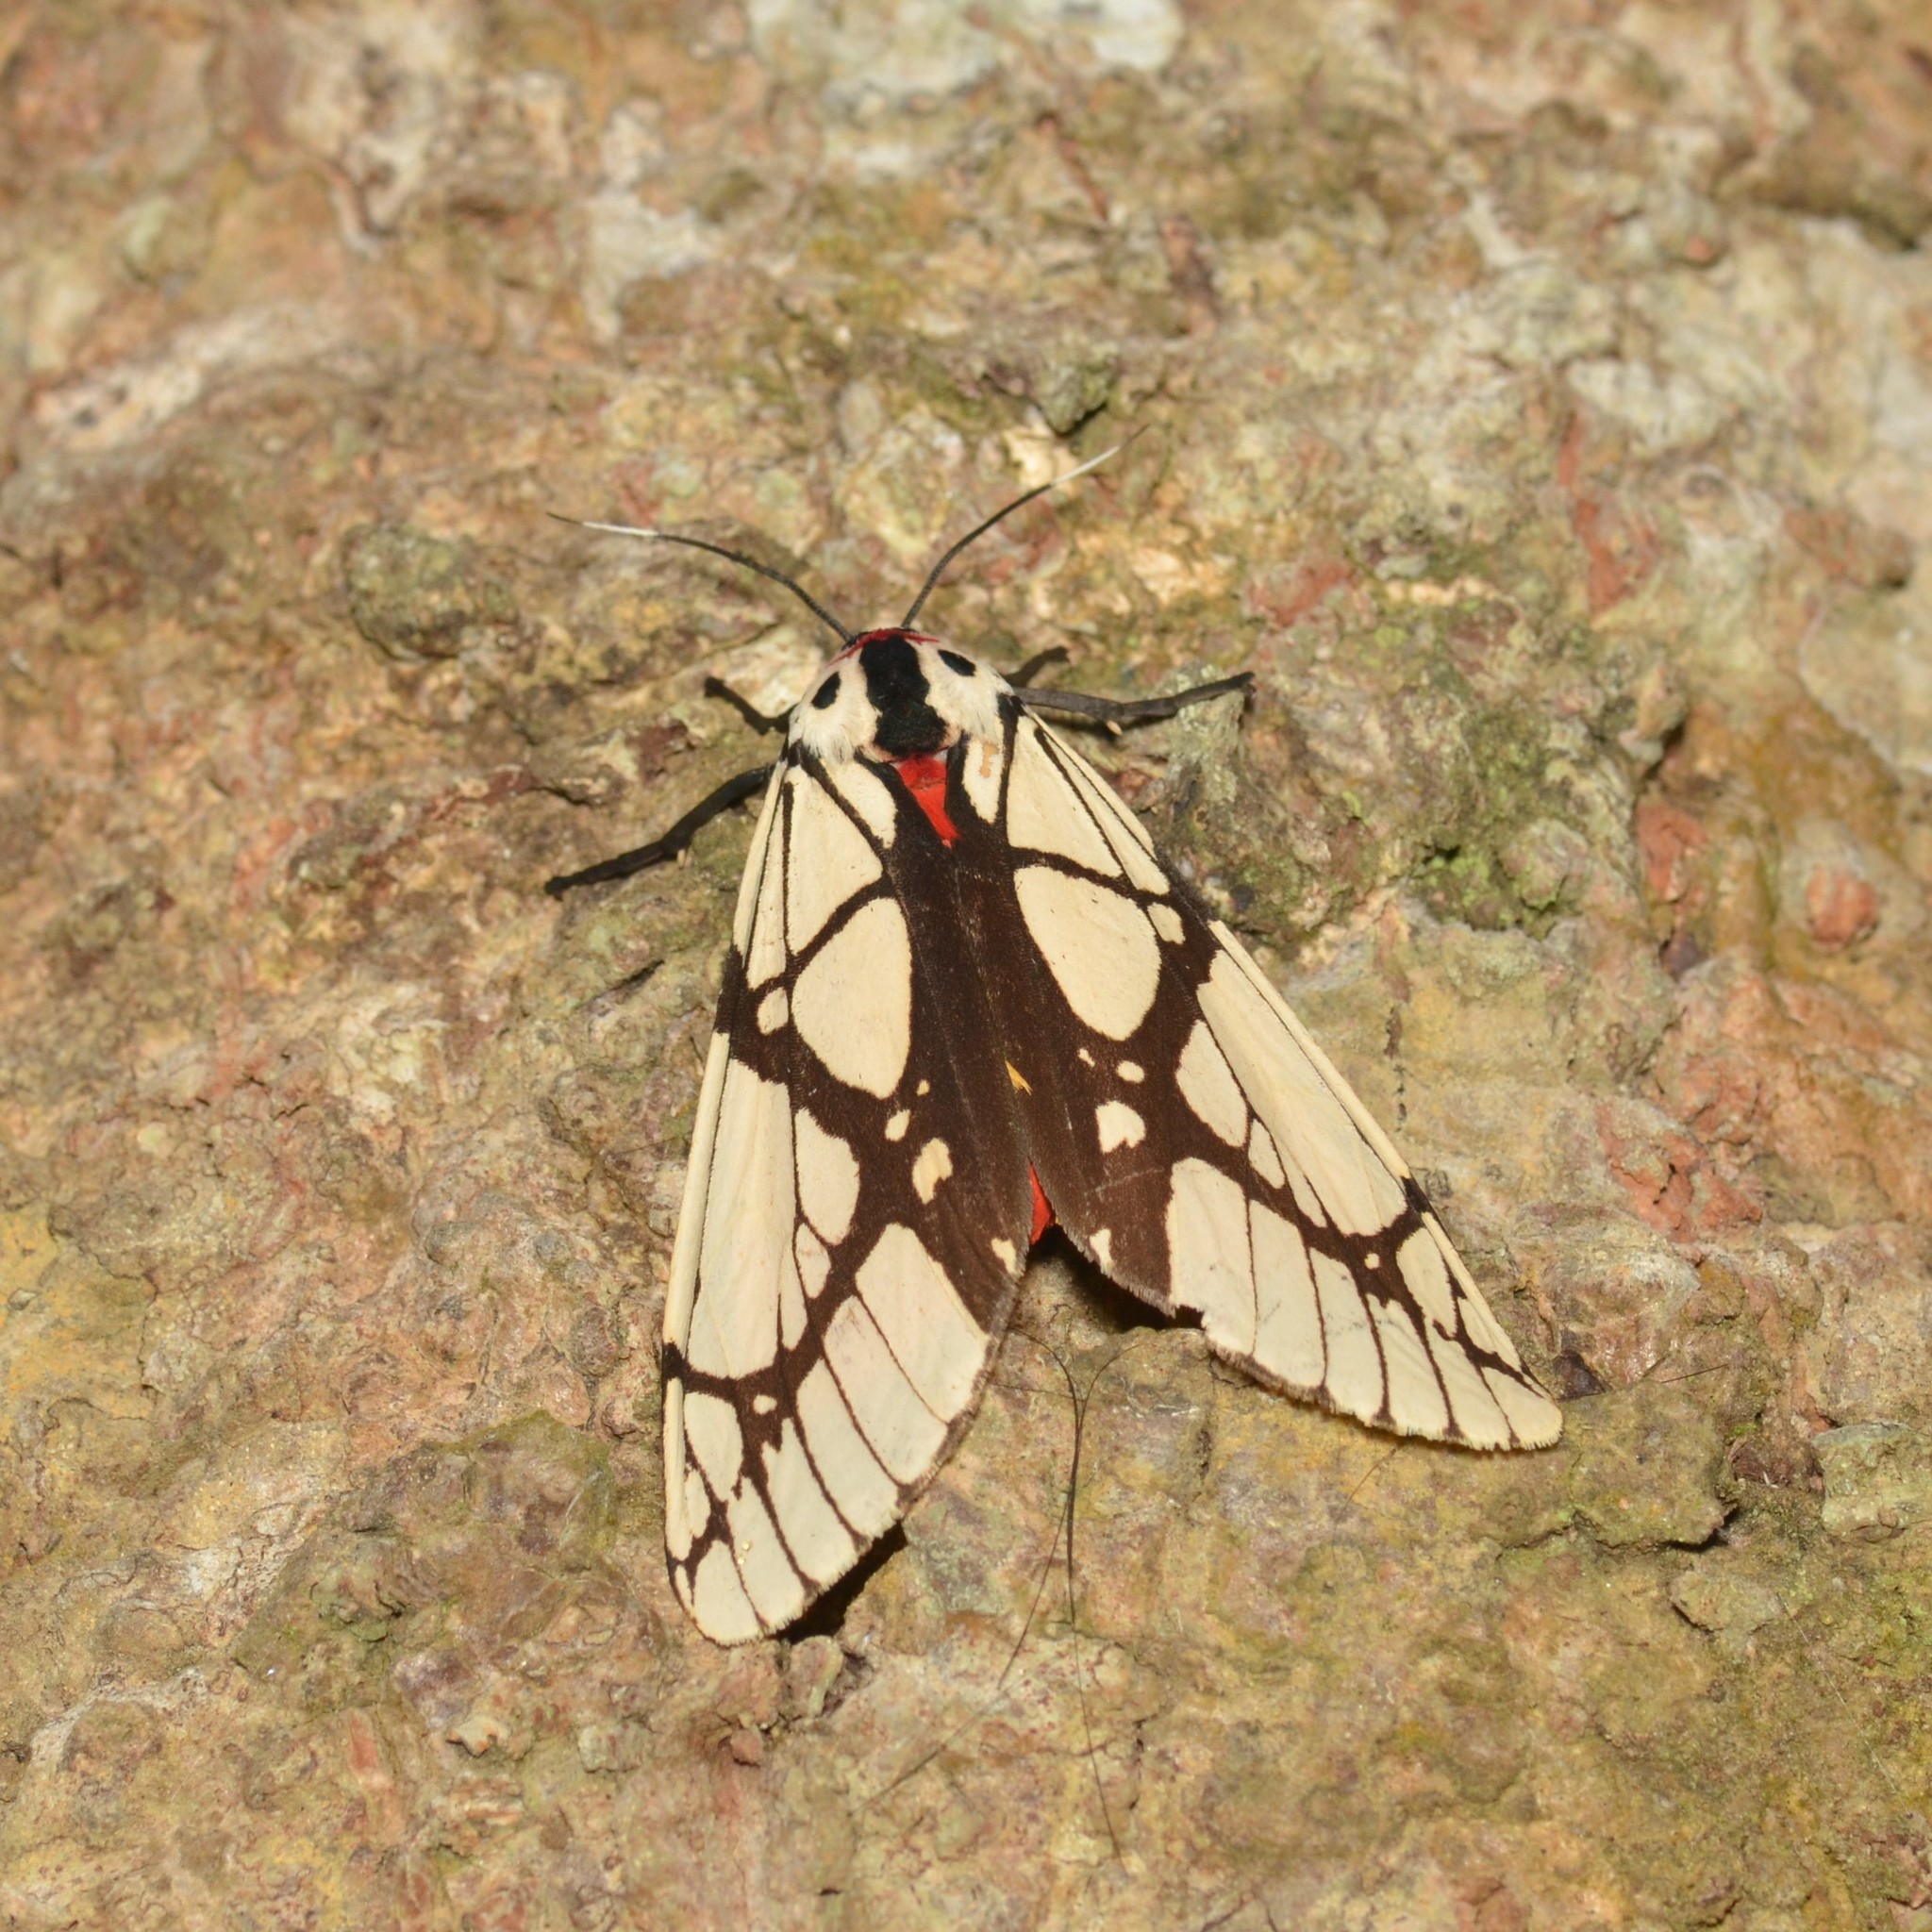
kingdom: Animalia
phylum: Arthropoda
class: Insecta
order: Lepidoptera
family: Erebidae
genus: Areas
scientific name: Areas galactina
